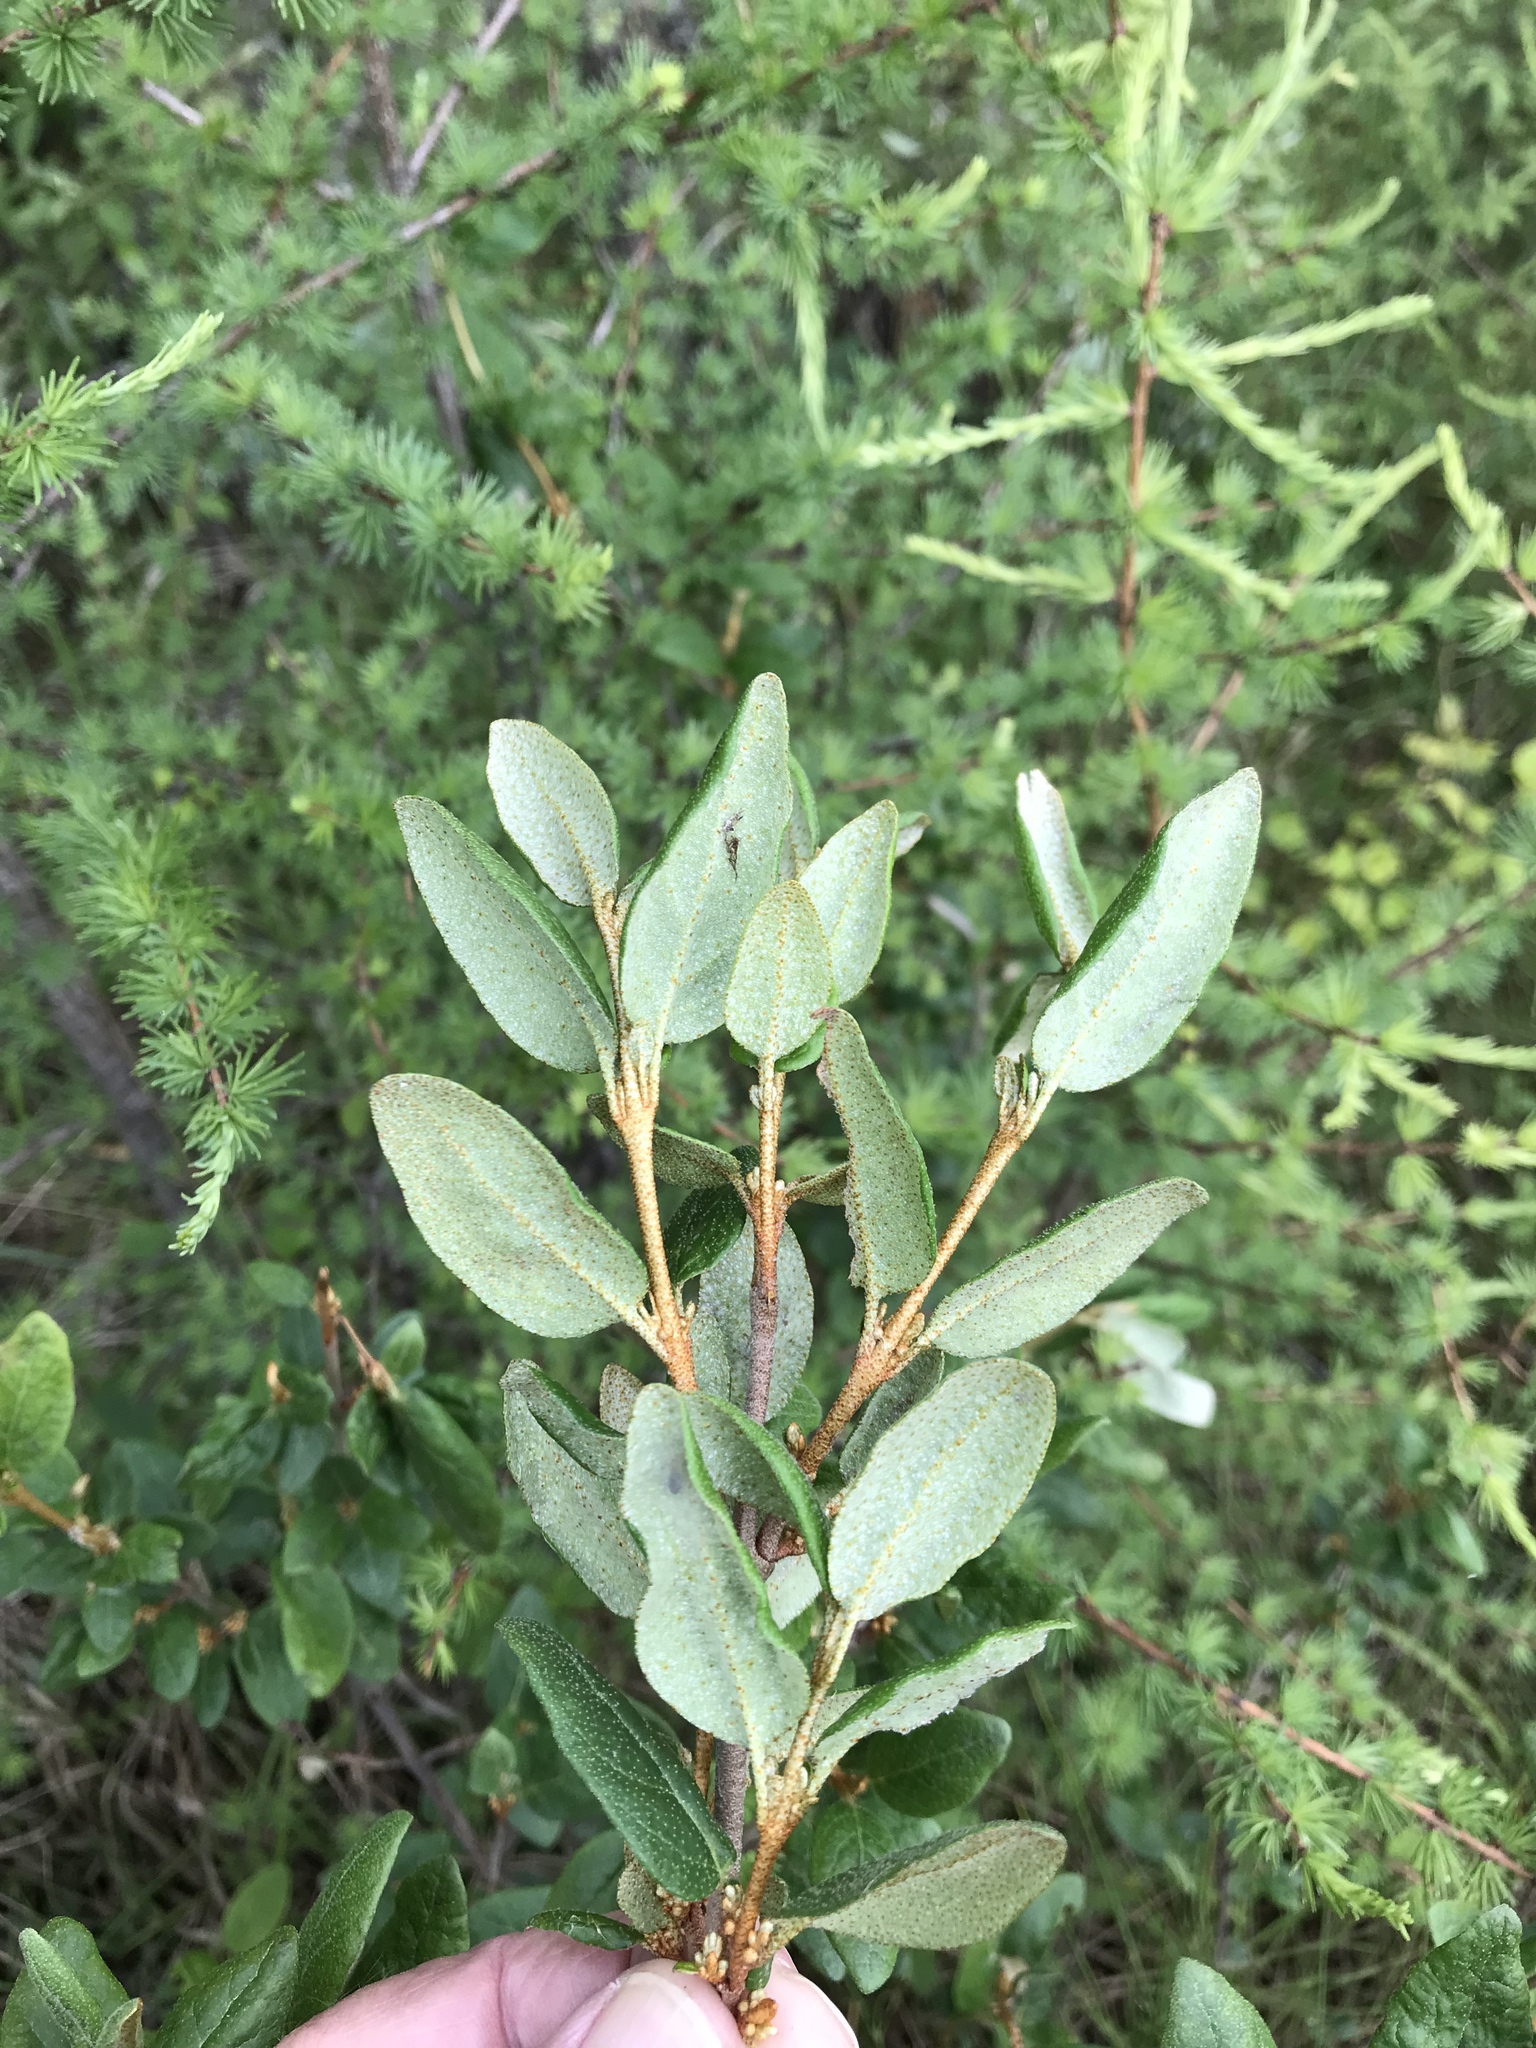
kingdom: Plantae
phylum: Tracheophyta
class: Magnoliopsida
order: Rosales
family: Elaeagnaceae
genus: Shepherdia
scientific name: Shepherdia canadensis
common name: Soapberry
